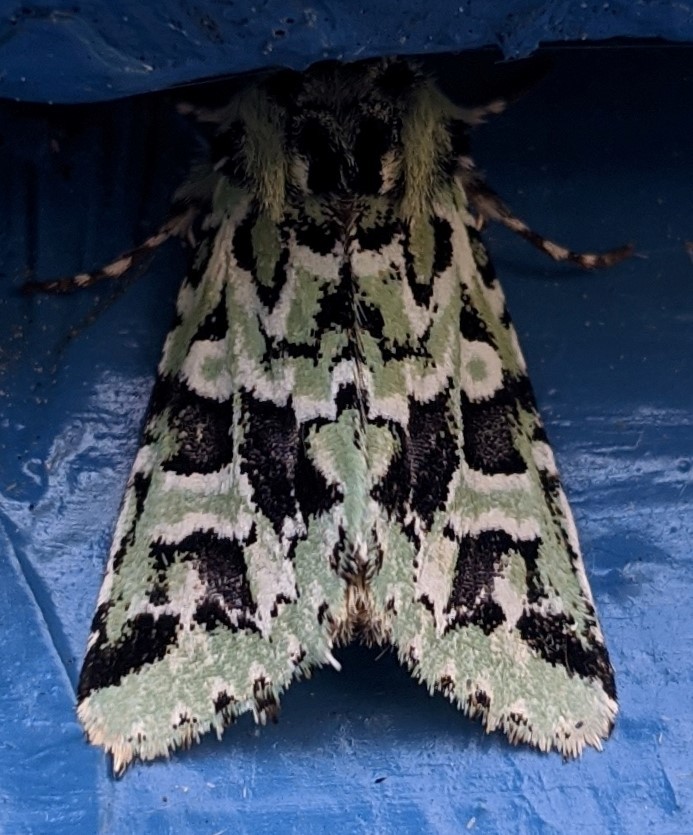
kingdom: Animalia
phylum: Arthropoda
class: Insecta
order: Lepidoptera
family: Noctuidae
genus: Feralia
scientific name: Feralia comstocki
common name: Comstock's sallow
